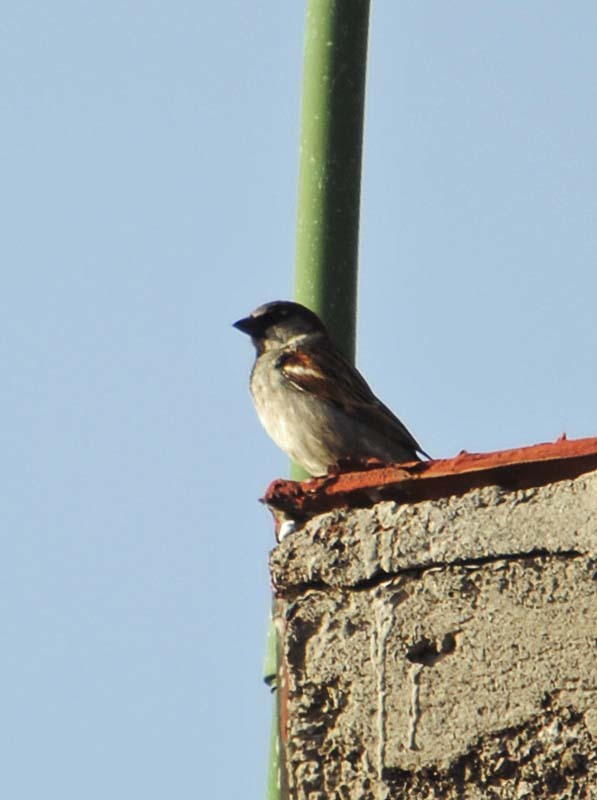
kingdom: Animalia
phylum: Chordata
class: Aves
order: Passeriformes
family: Passeridae
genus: Passer
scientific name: Passer domesticus
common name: House sparrow
